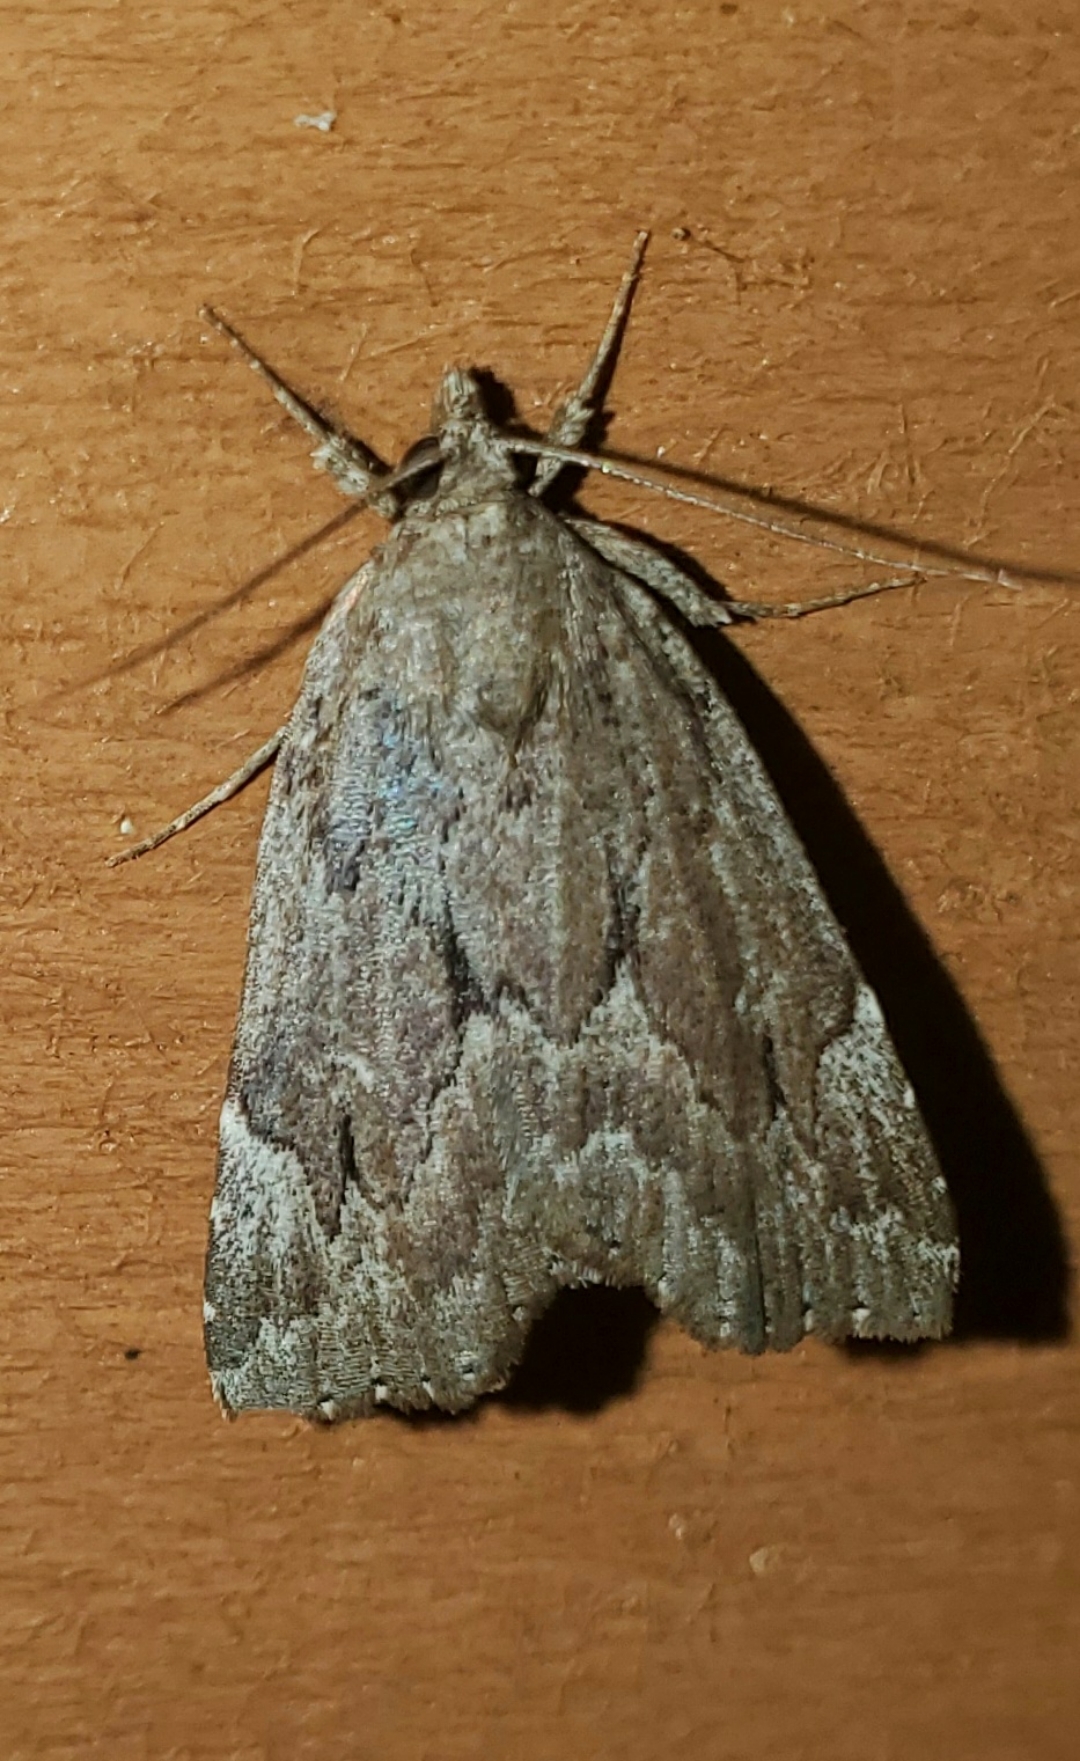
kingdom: Animalia
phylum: Arthropoda
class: Insecta
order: Lepidoptera
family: Erebidae
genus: Cutina
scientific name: Cutina albopunctella
